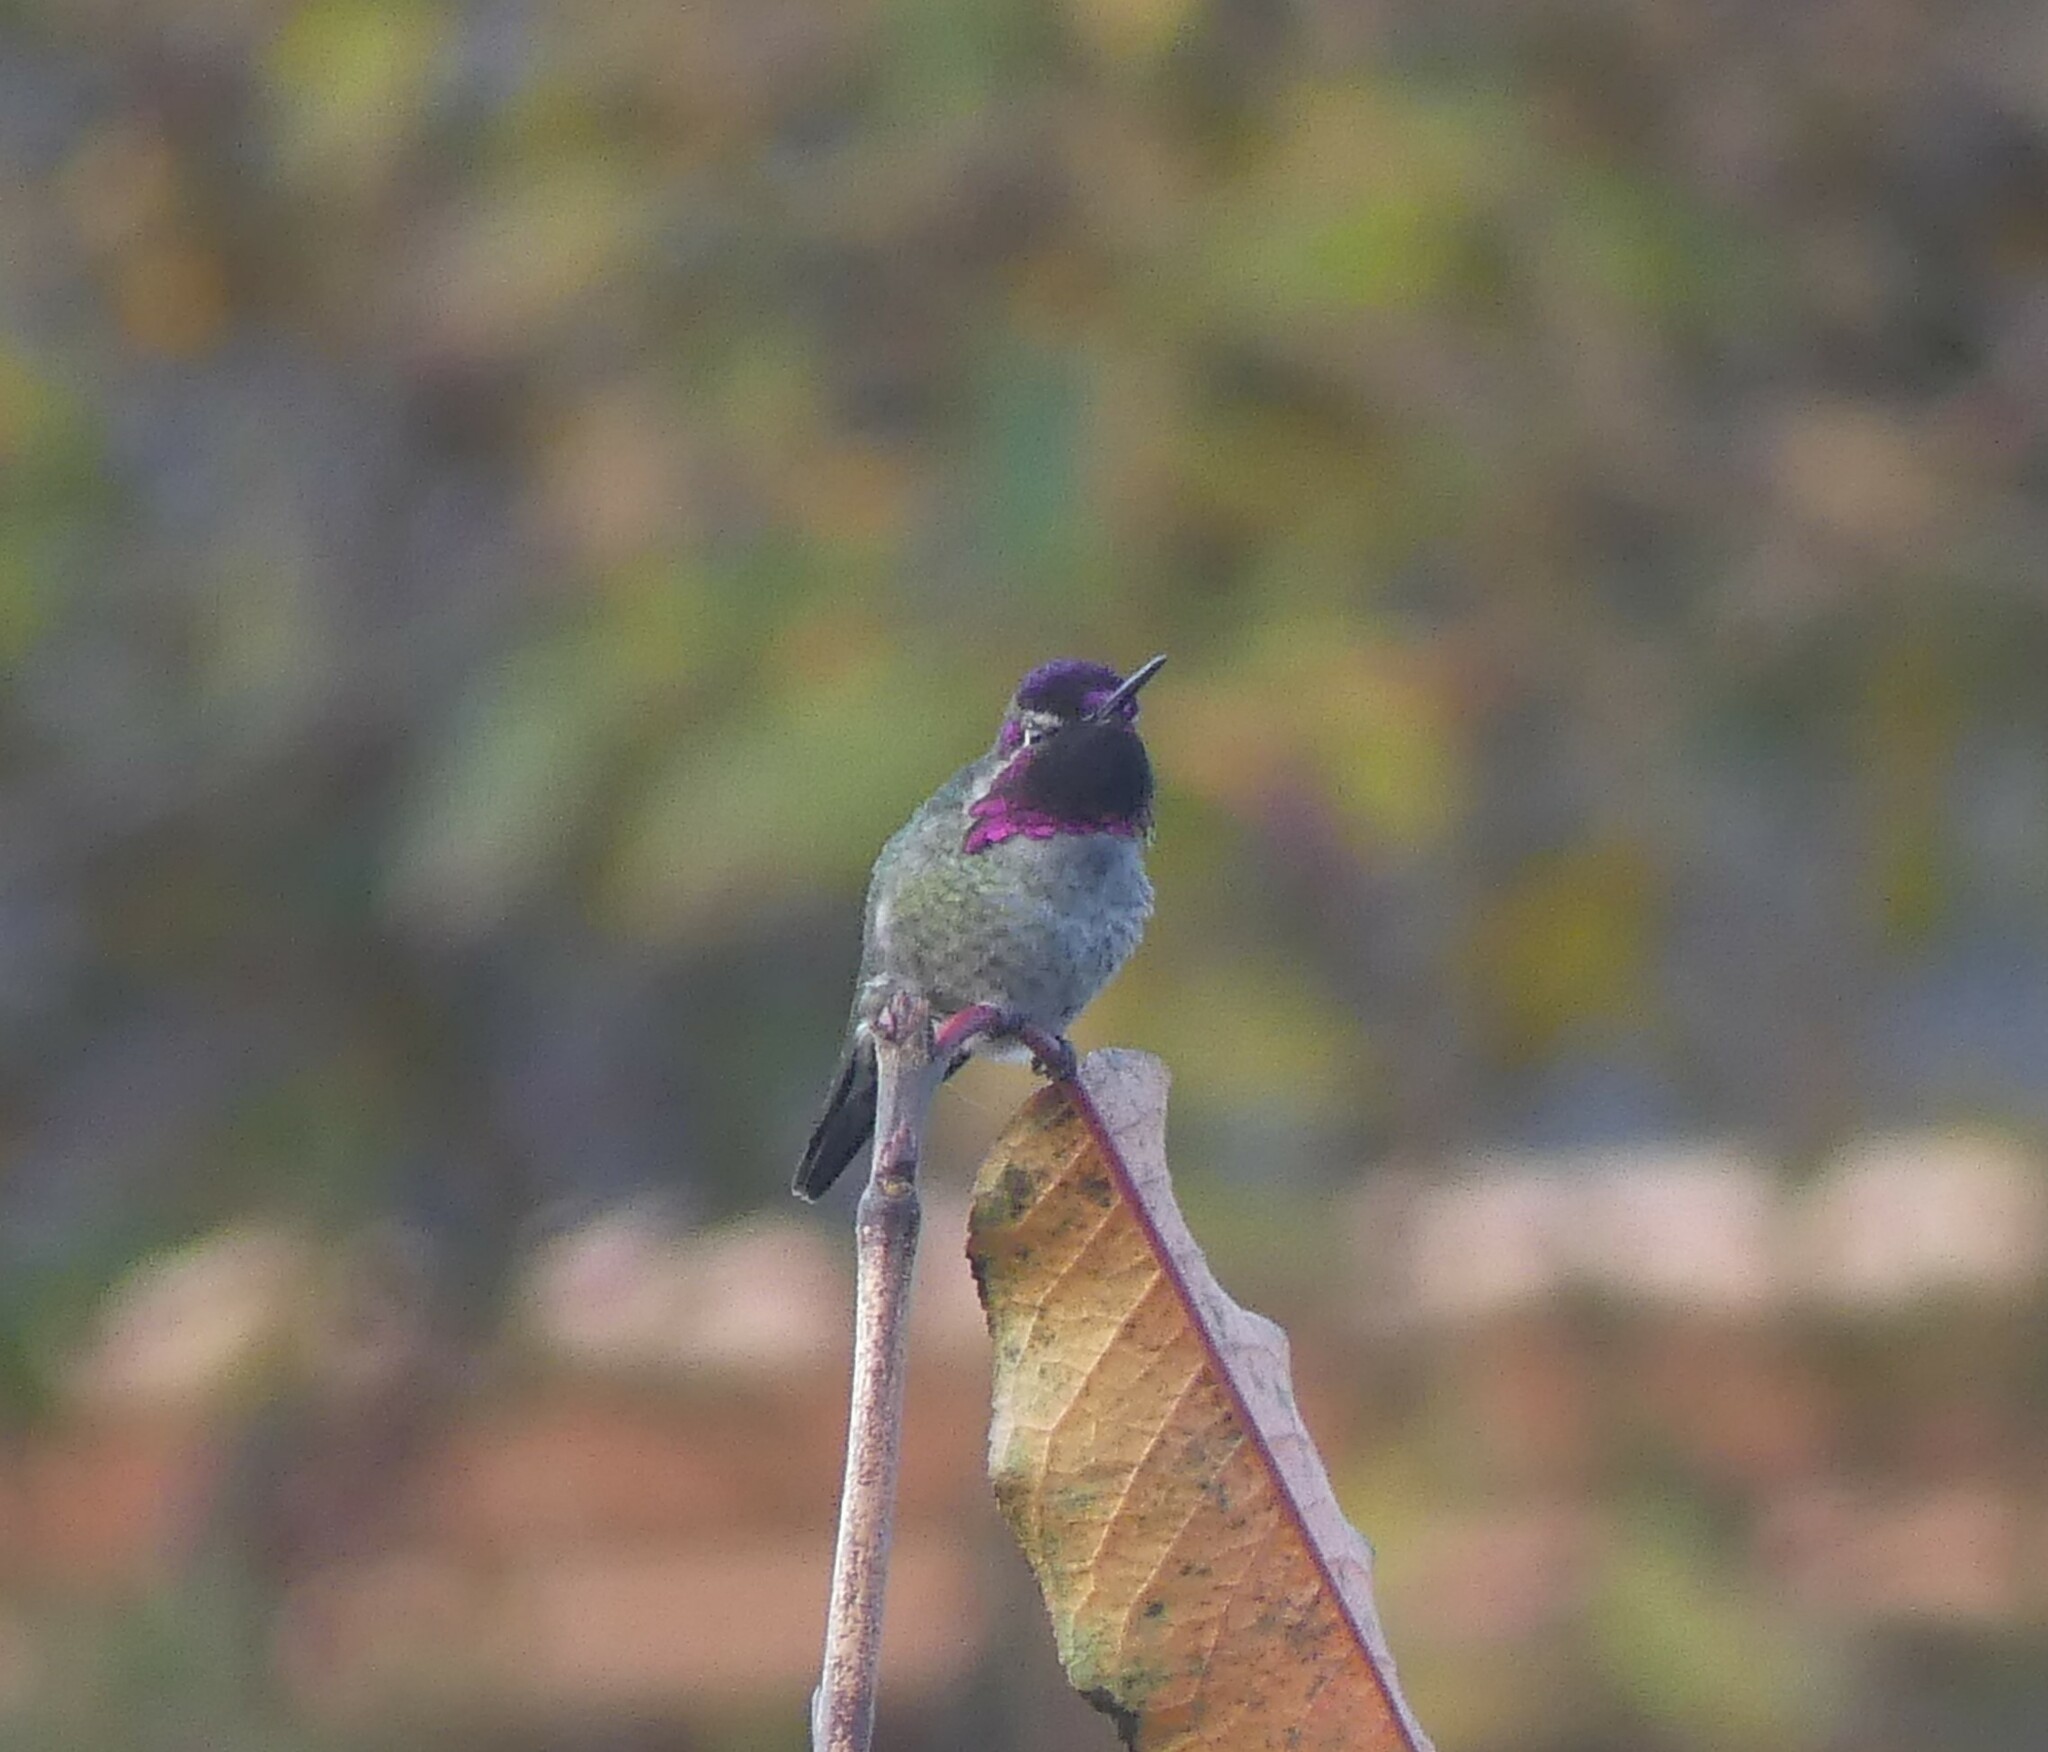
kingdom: Animalia
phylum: Chordata
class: Aves
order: Apodiformes
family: Trochilidae
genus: Calypte
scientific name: Calypte anna
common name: Anna's hummingbird
